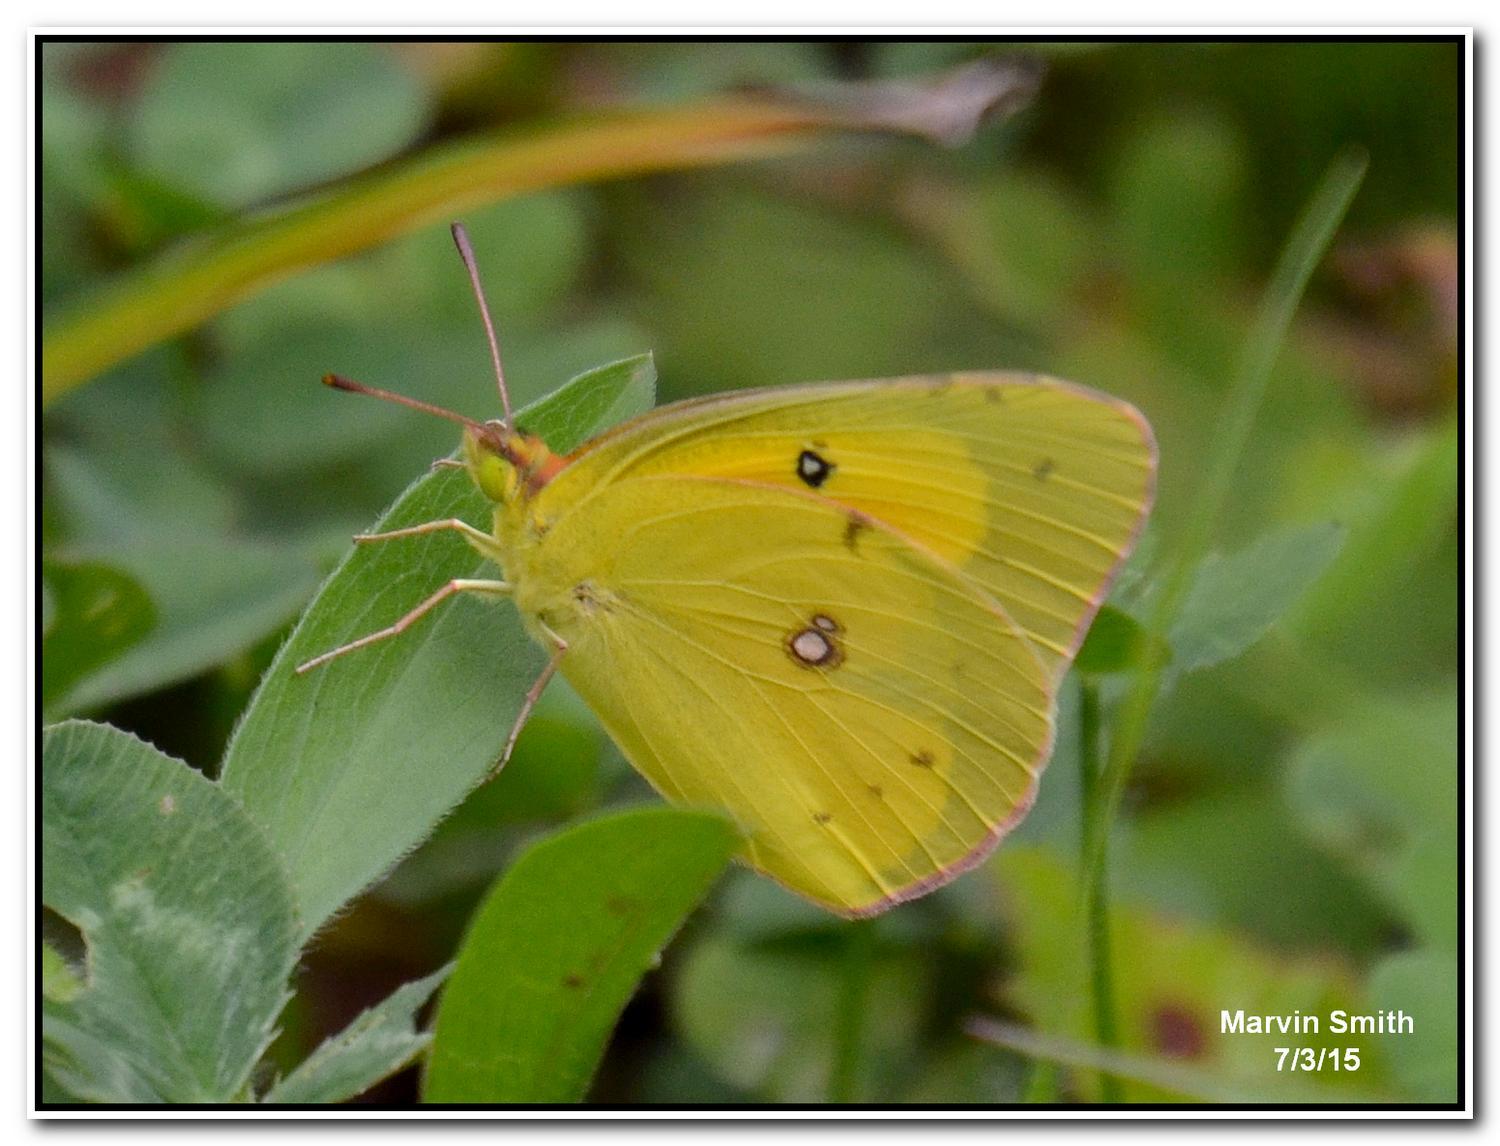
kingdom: Animalia
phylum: Arthropoda
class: Insecta
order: Lepidoptera
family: Pieridae
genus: Colias
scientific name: Colias eurytheme
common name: Alfalfa butterfly
